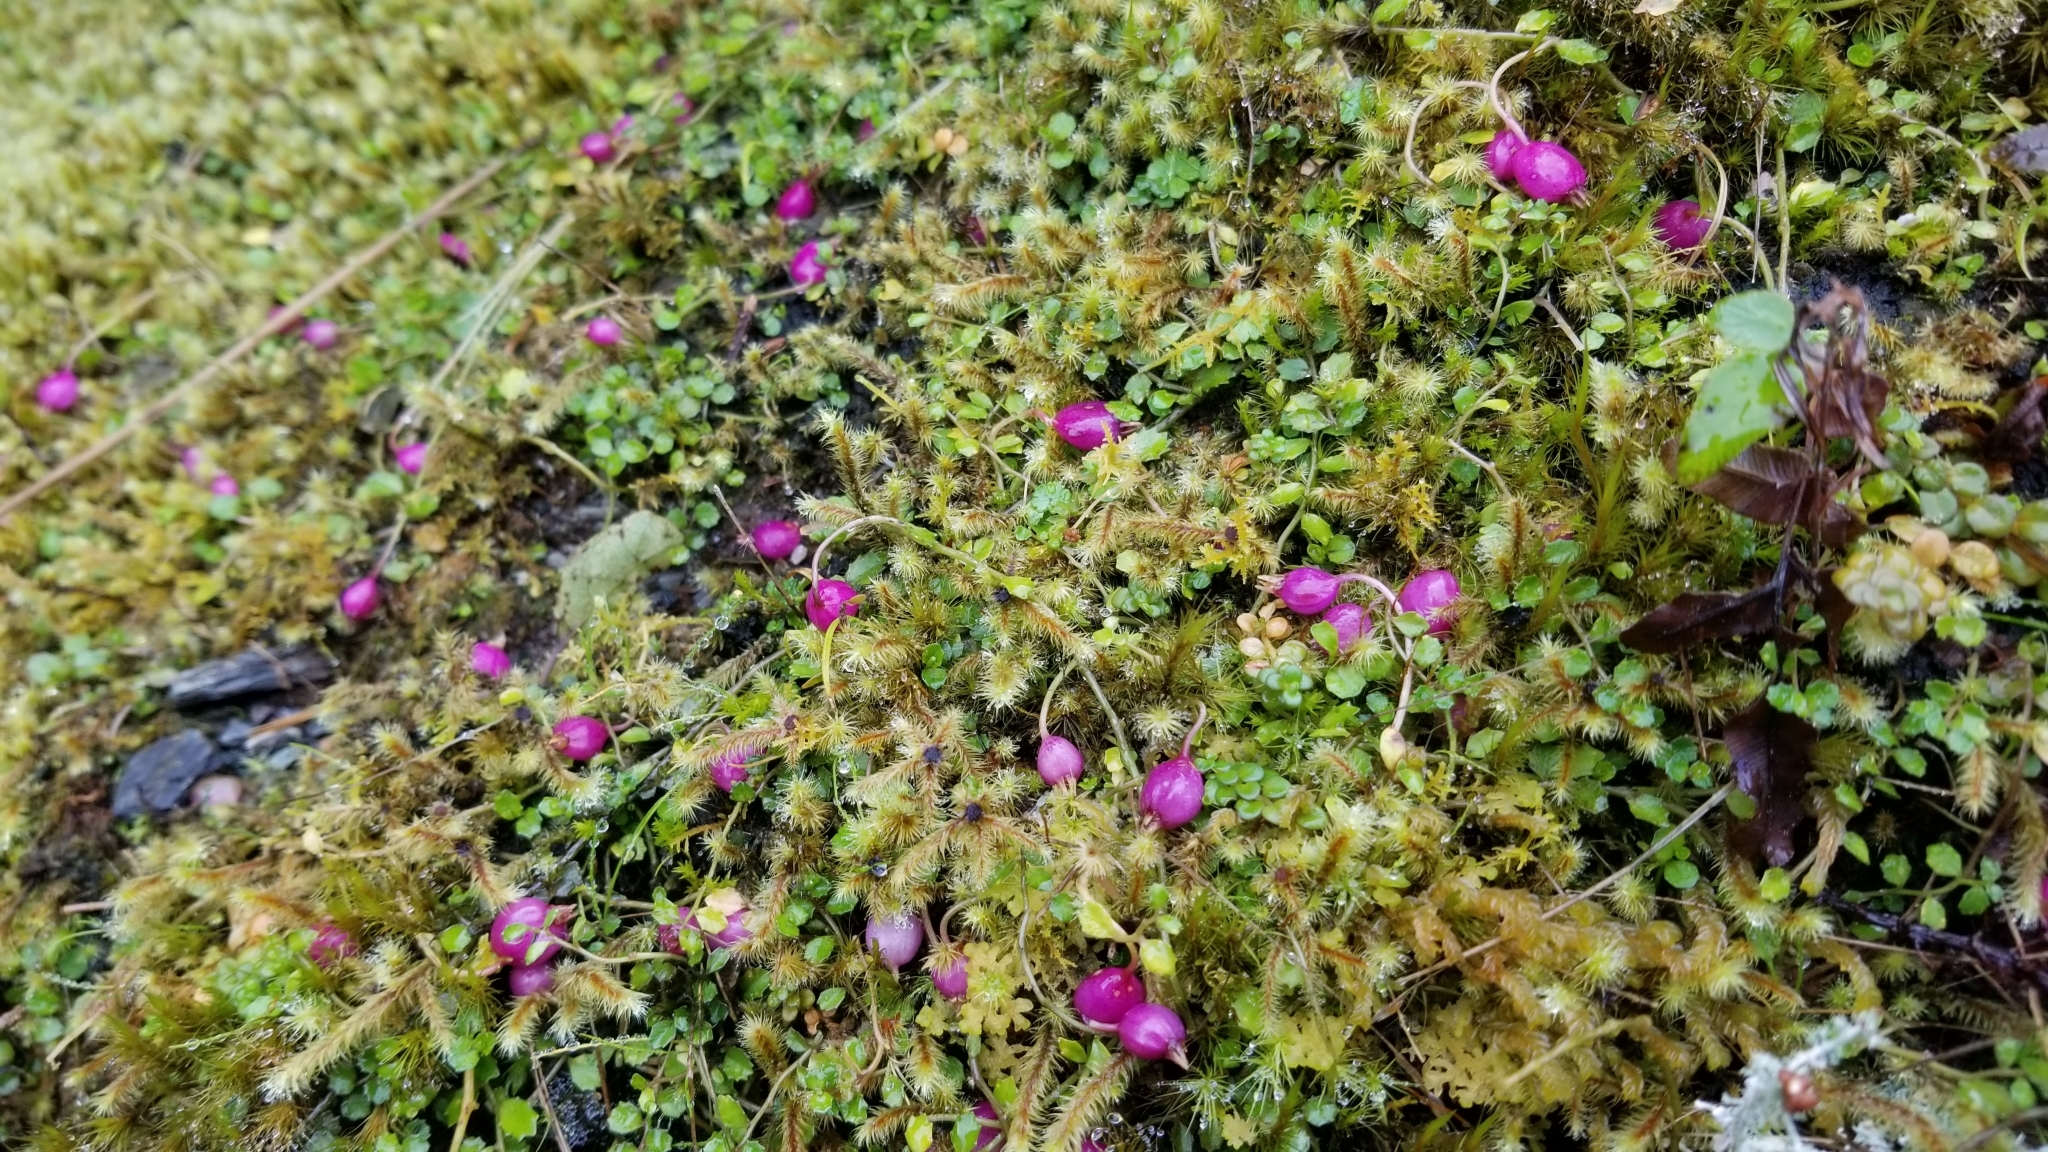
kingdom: Plantae
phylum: Tracheophyta
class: Magnoliopsida
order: Asterales
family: Campanulaceae
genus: Lobelia
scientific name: Lobelia angulata
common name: Lawn lobelia
